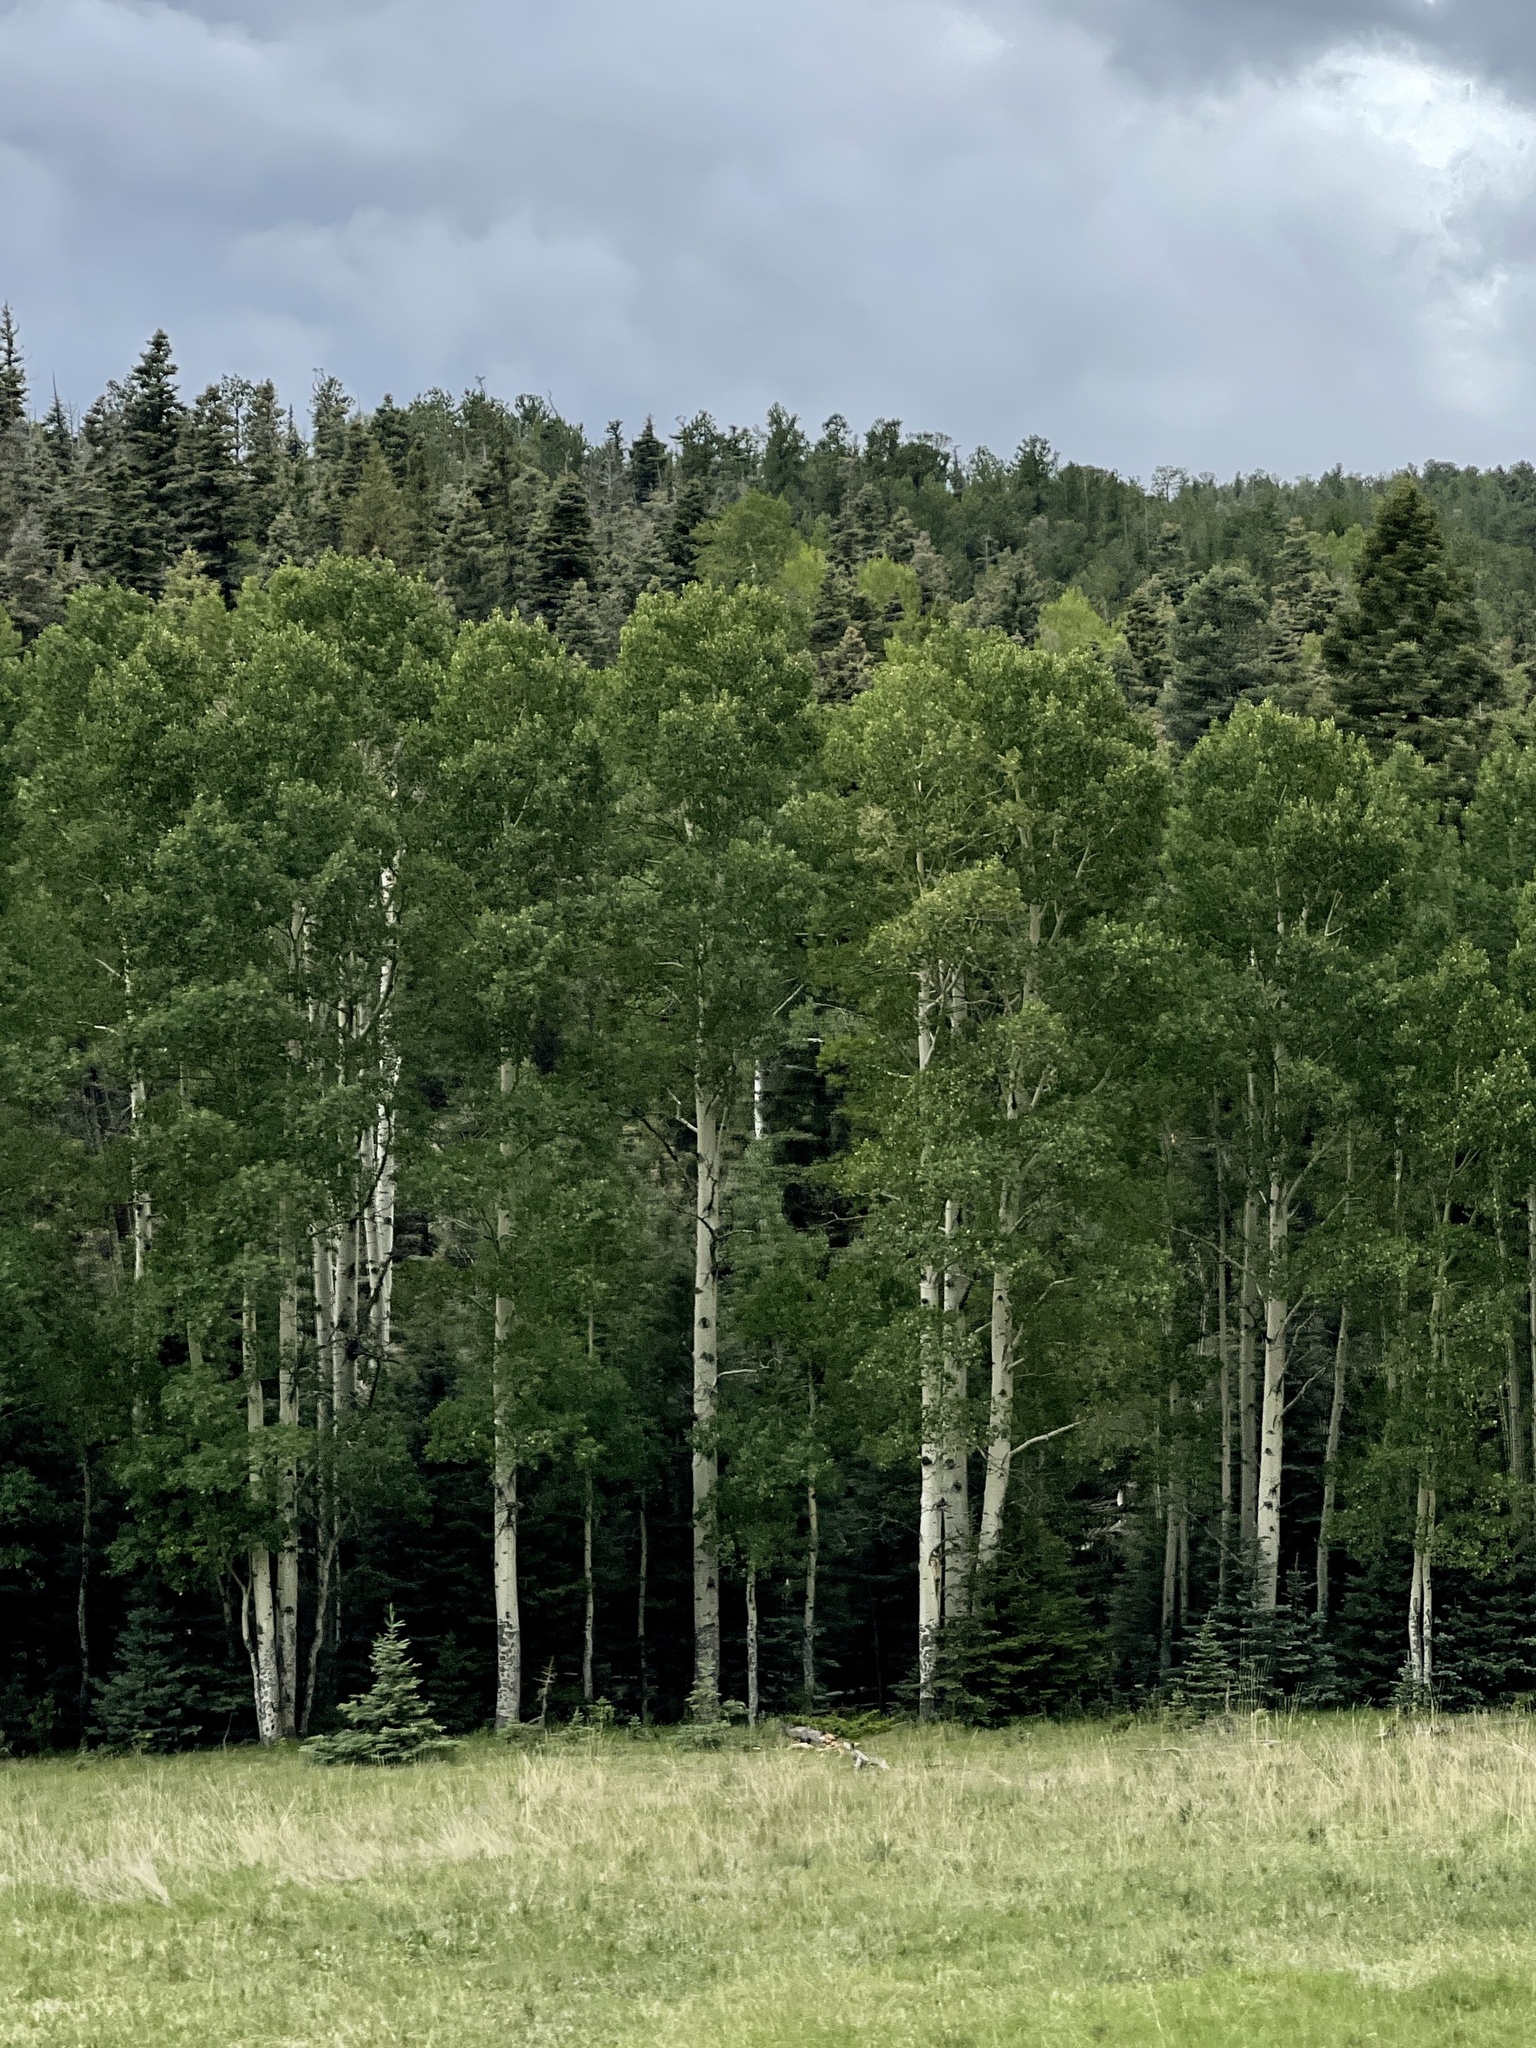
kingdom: Plantae
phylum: Tracheophyta
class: Magnoliopsida
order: Malpighiales
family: Salicaceae
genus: Populus
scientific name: Populus tremuloides
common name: Quaking aspen
